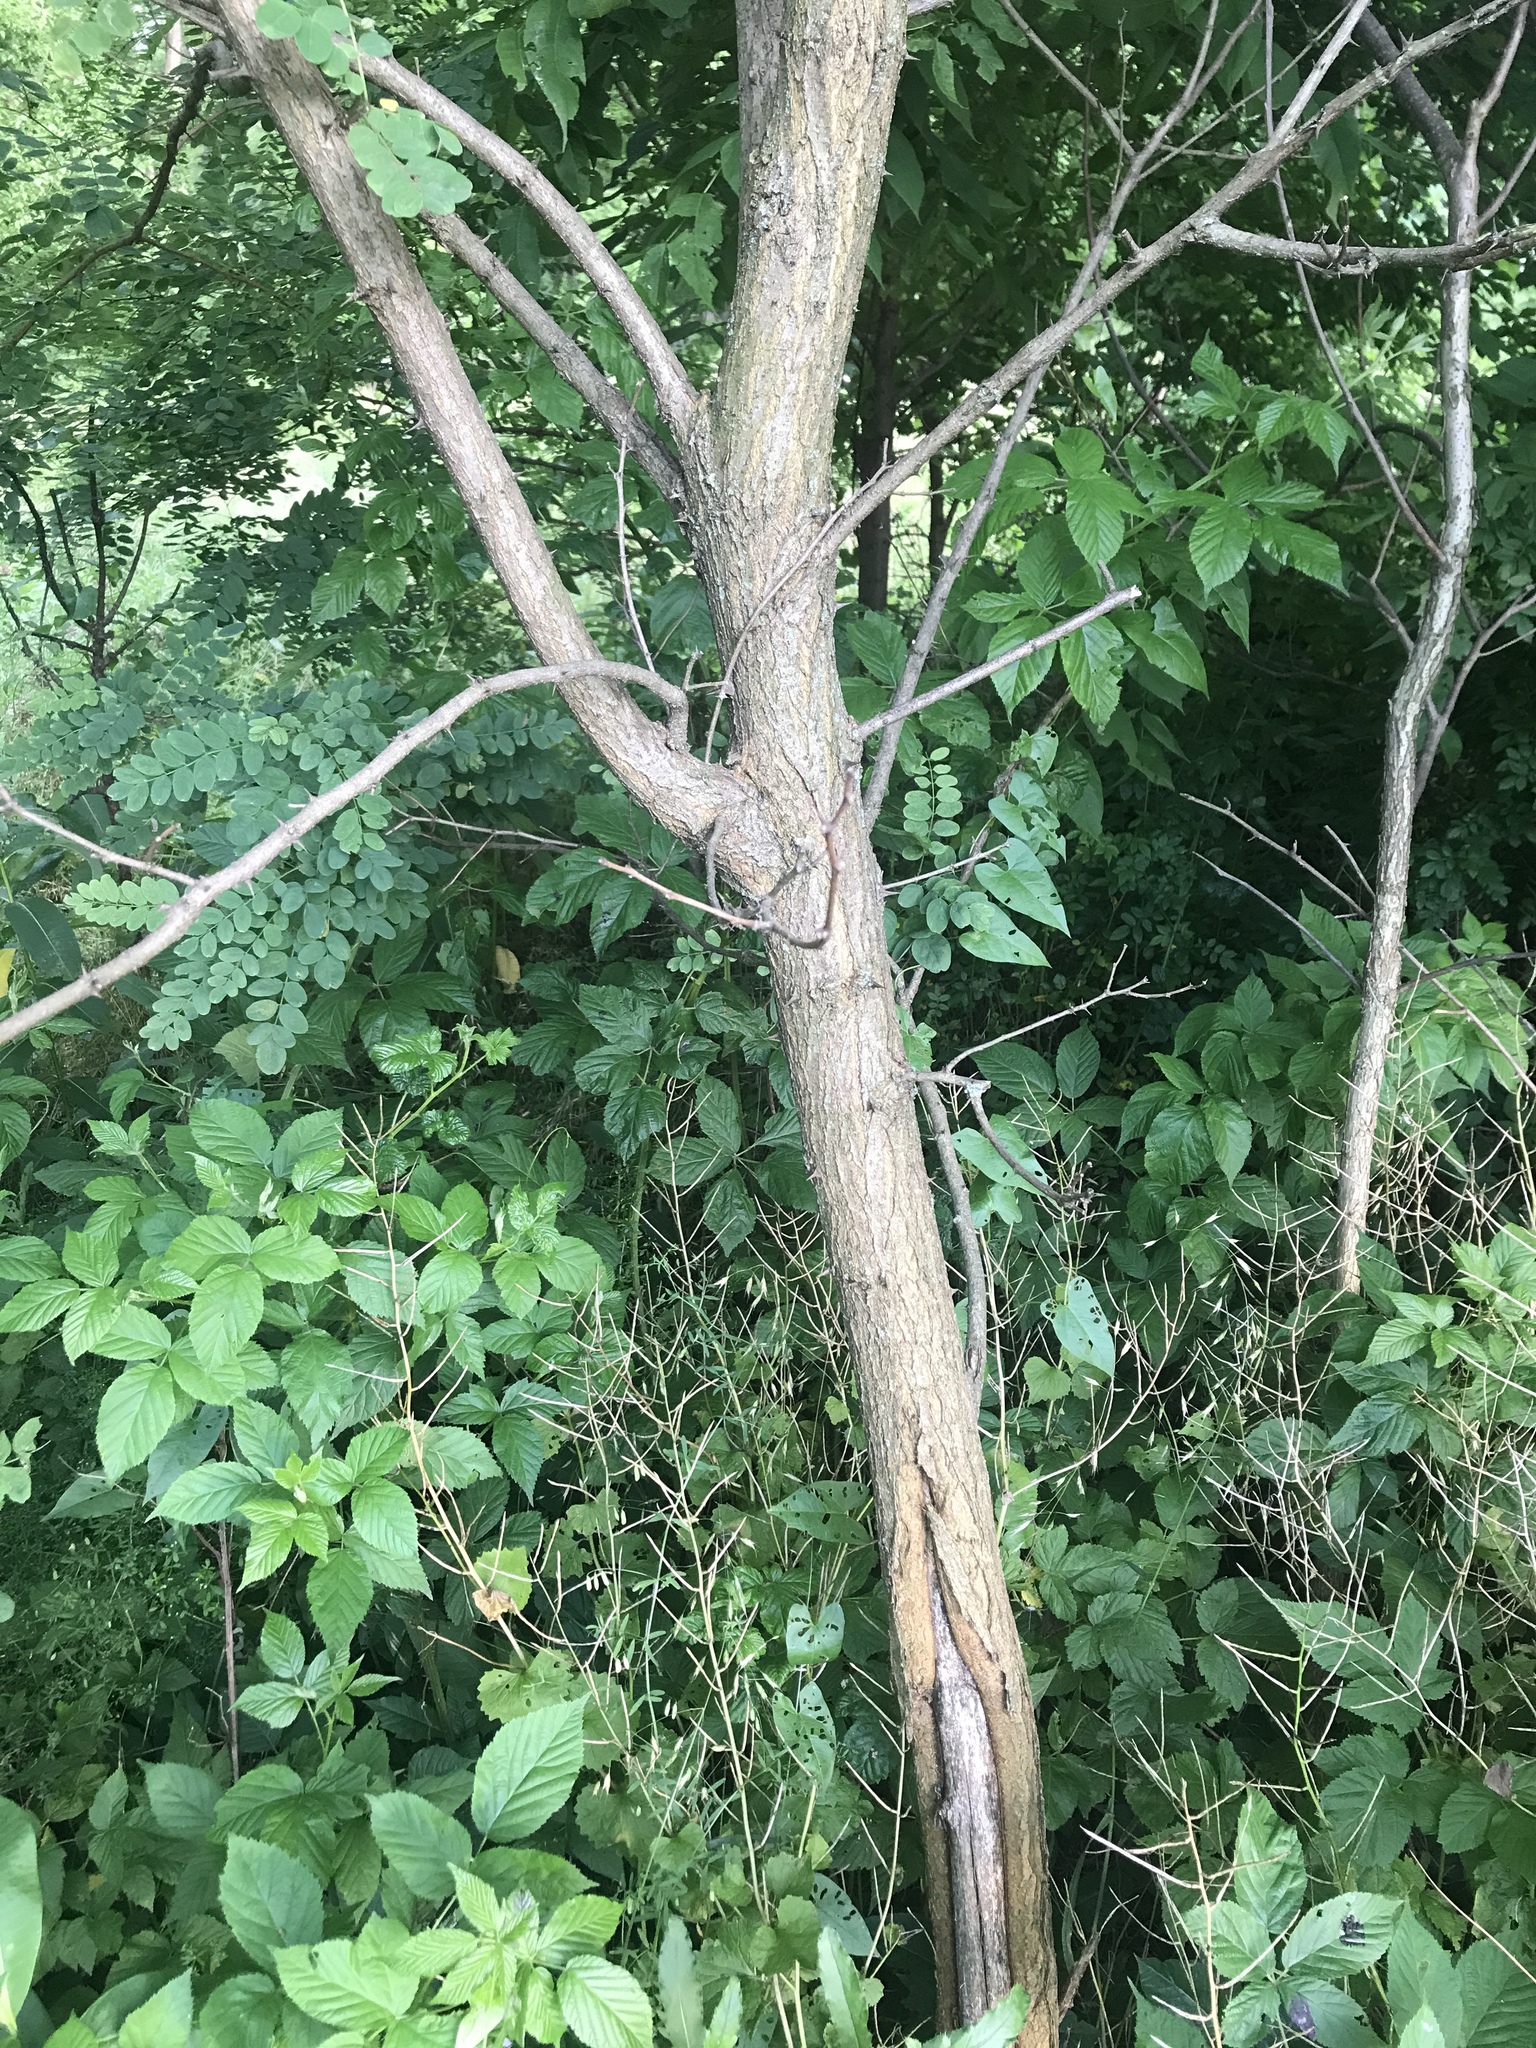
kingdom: Plantae
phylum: Tracheophyta
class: Magnoliopsida
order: Fabales
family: Fabaceae
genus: Robinia
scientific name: Robinia pseudoacacia
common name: Black locust
